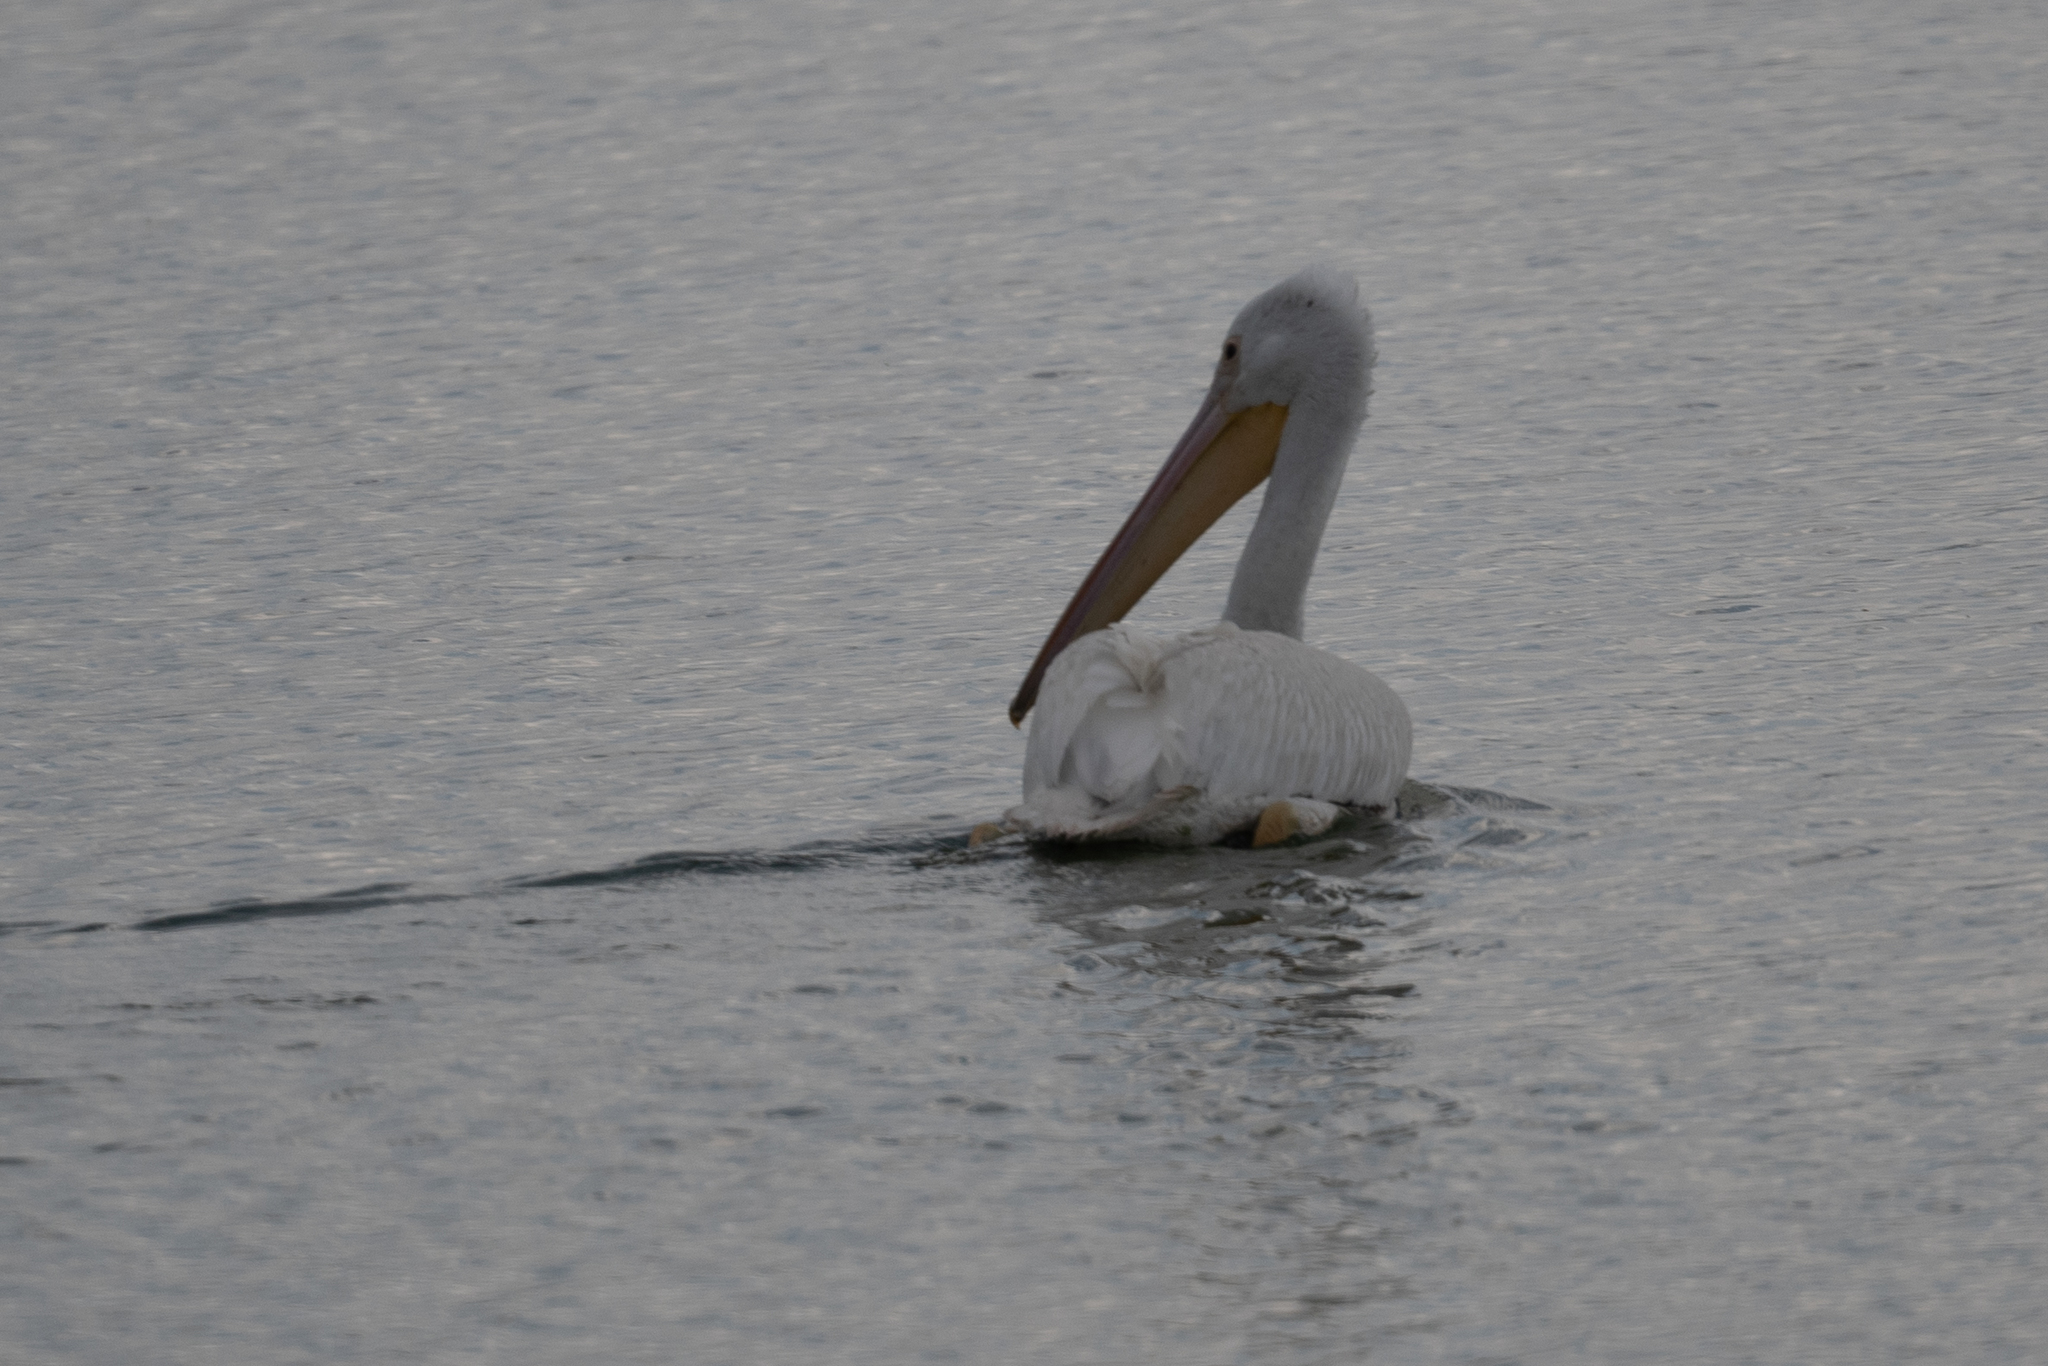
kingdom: Animalia
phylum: Chordata
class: Aves
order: Pelecaniformes
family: Pelecanidae
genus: Pelecanus
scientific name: Pelecanus erythrorhynchos
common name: American white pelican
